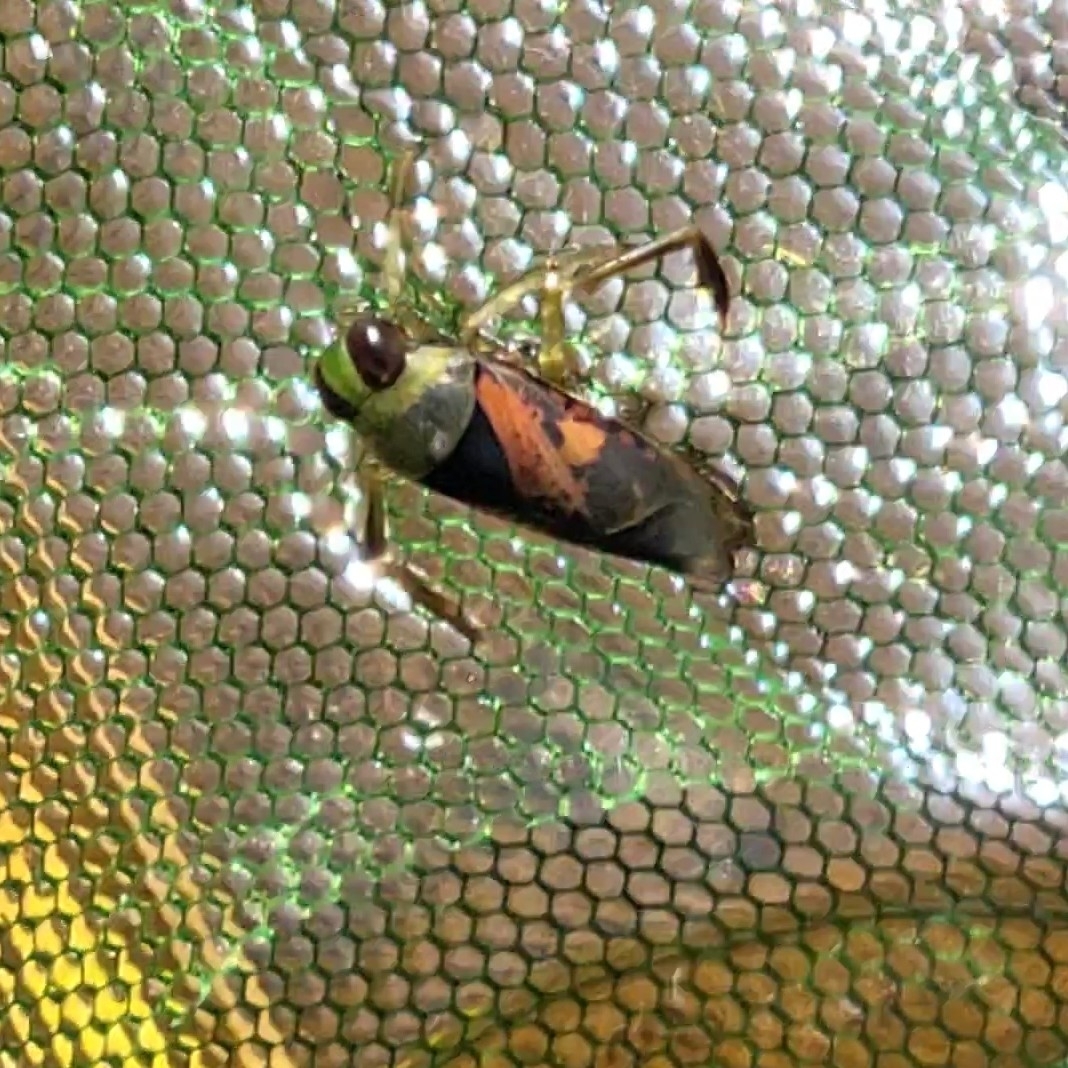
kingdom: Animalia
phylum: Arthropoda
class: Insecta
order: Hemiptera
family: Notonectidae
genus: Notonecta
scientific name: Notonecta kirbyi
